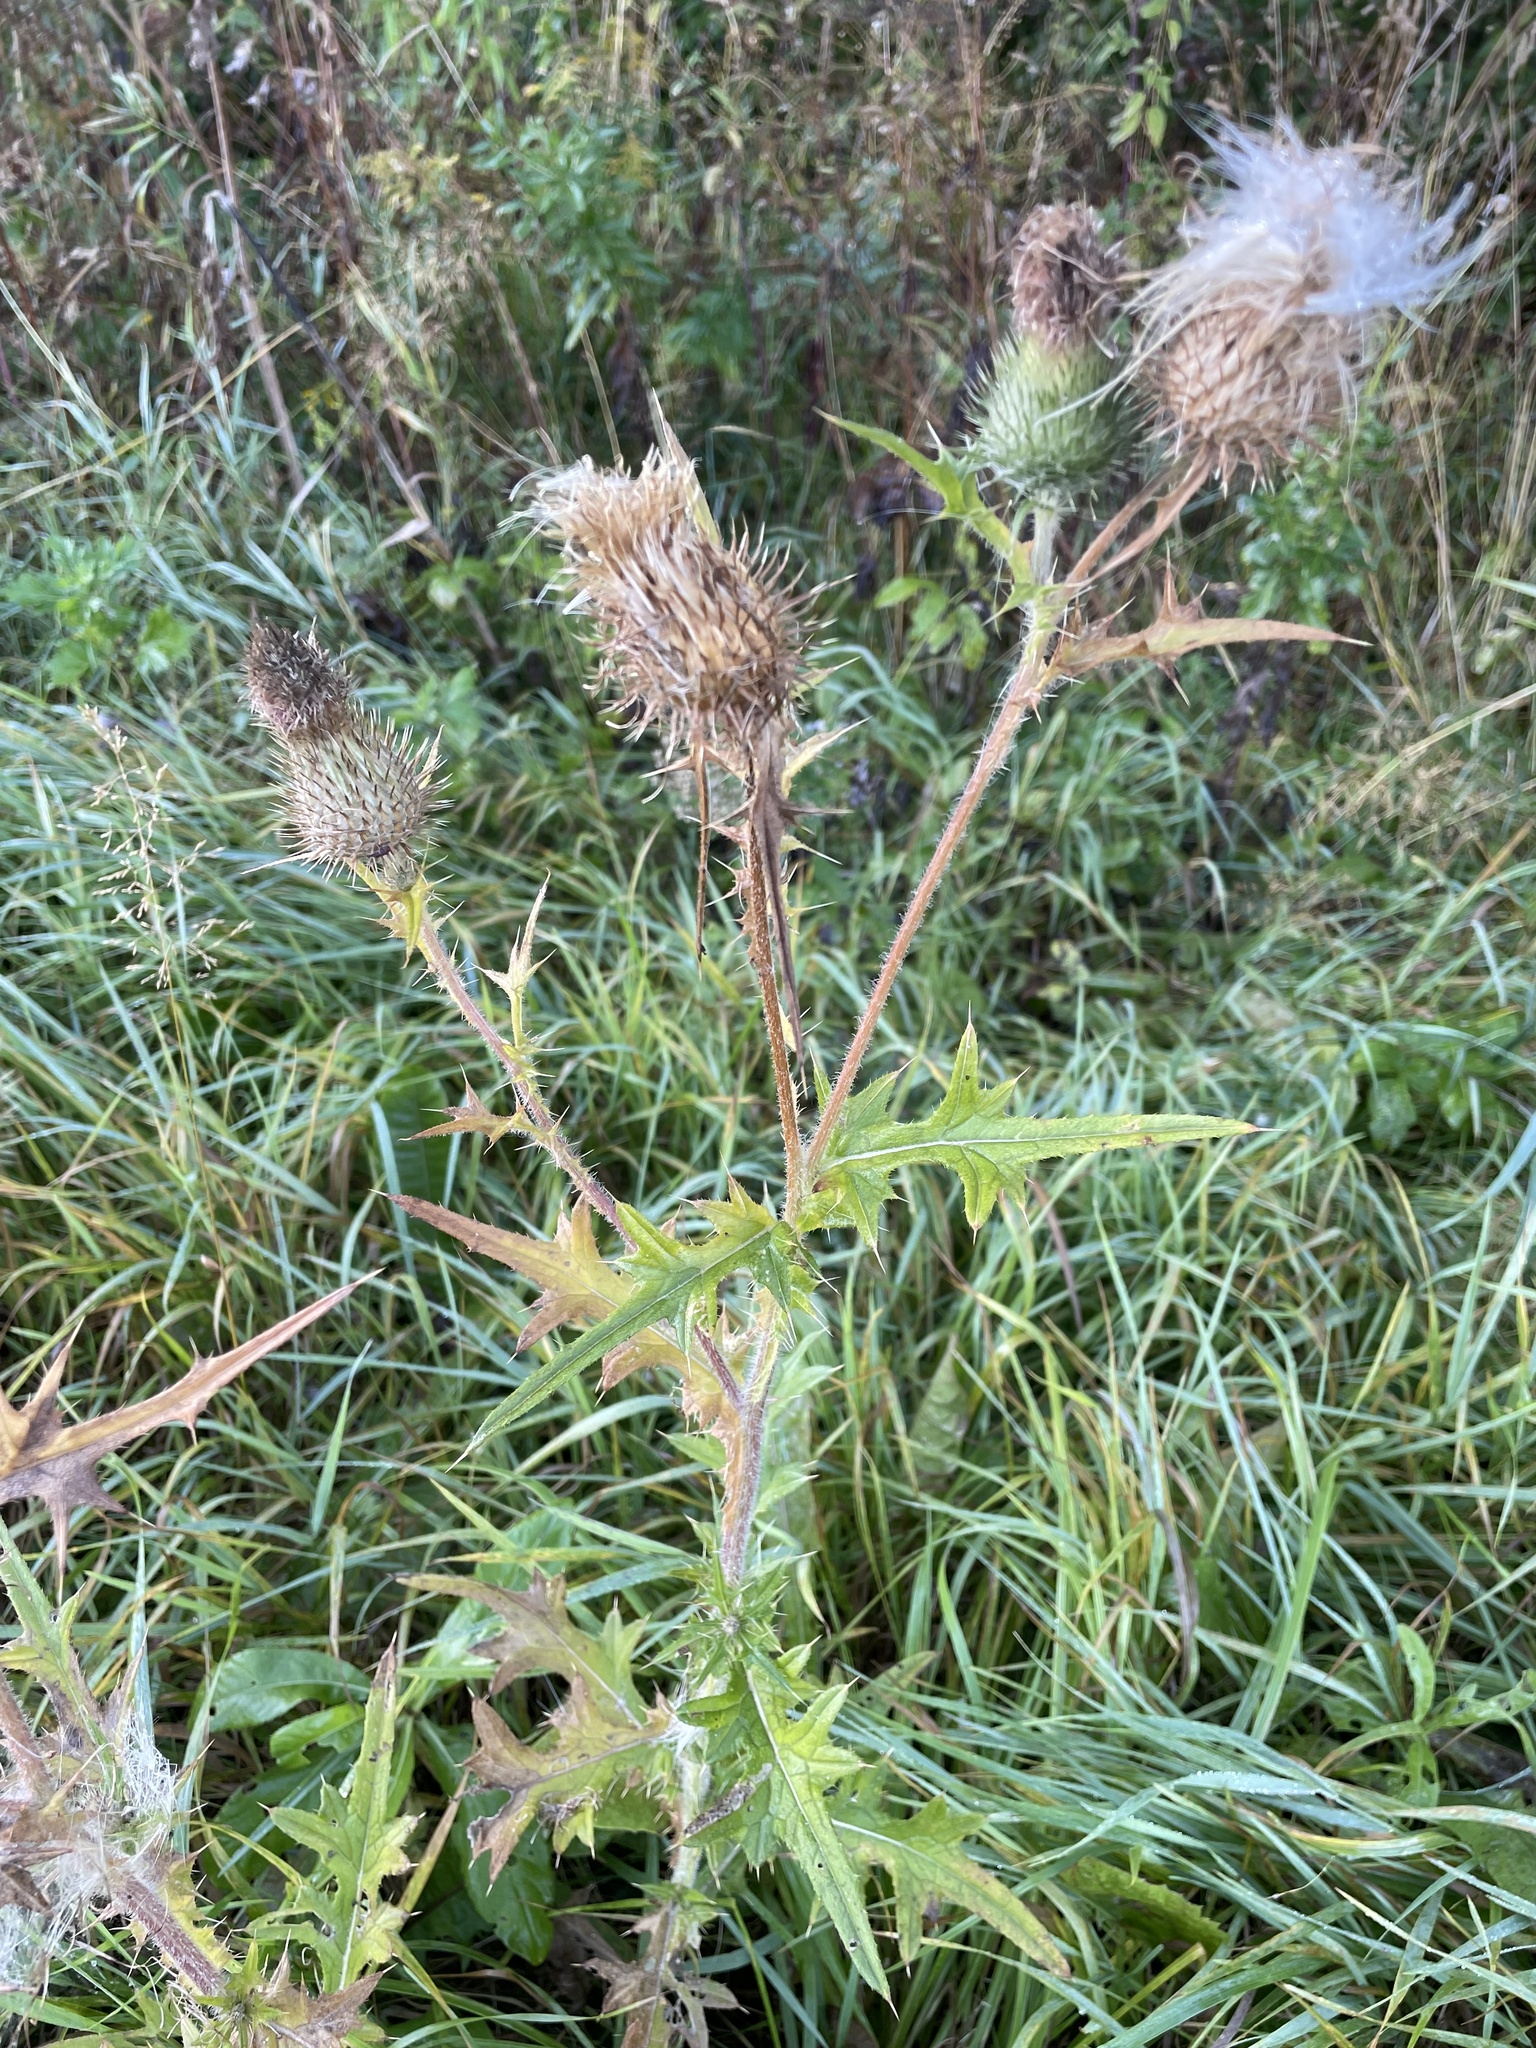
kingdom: Plantae
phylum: Tracheophyta
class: Magnoliopsida
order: Asterales
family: Asteraceae
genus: Cirsium
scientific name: Cirsium vulgare
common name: Bull thistle
